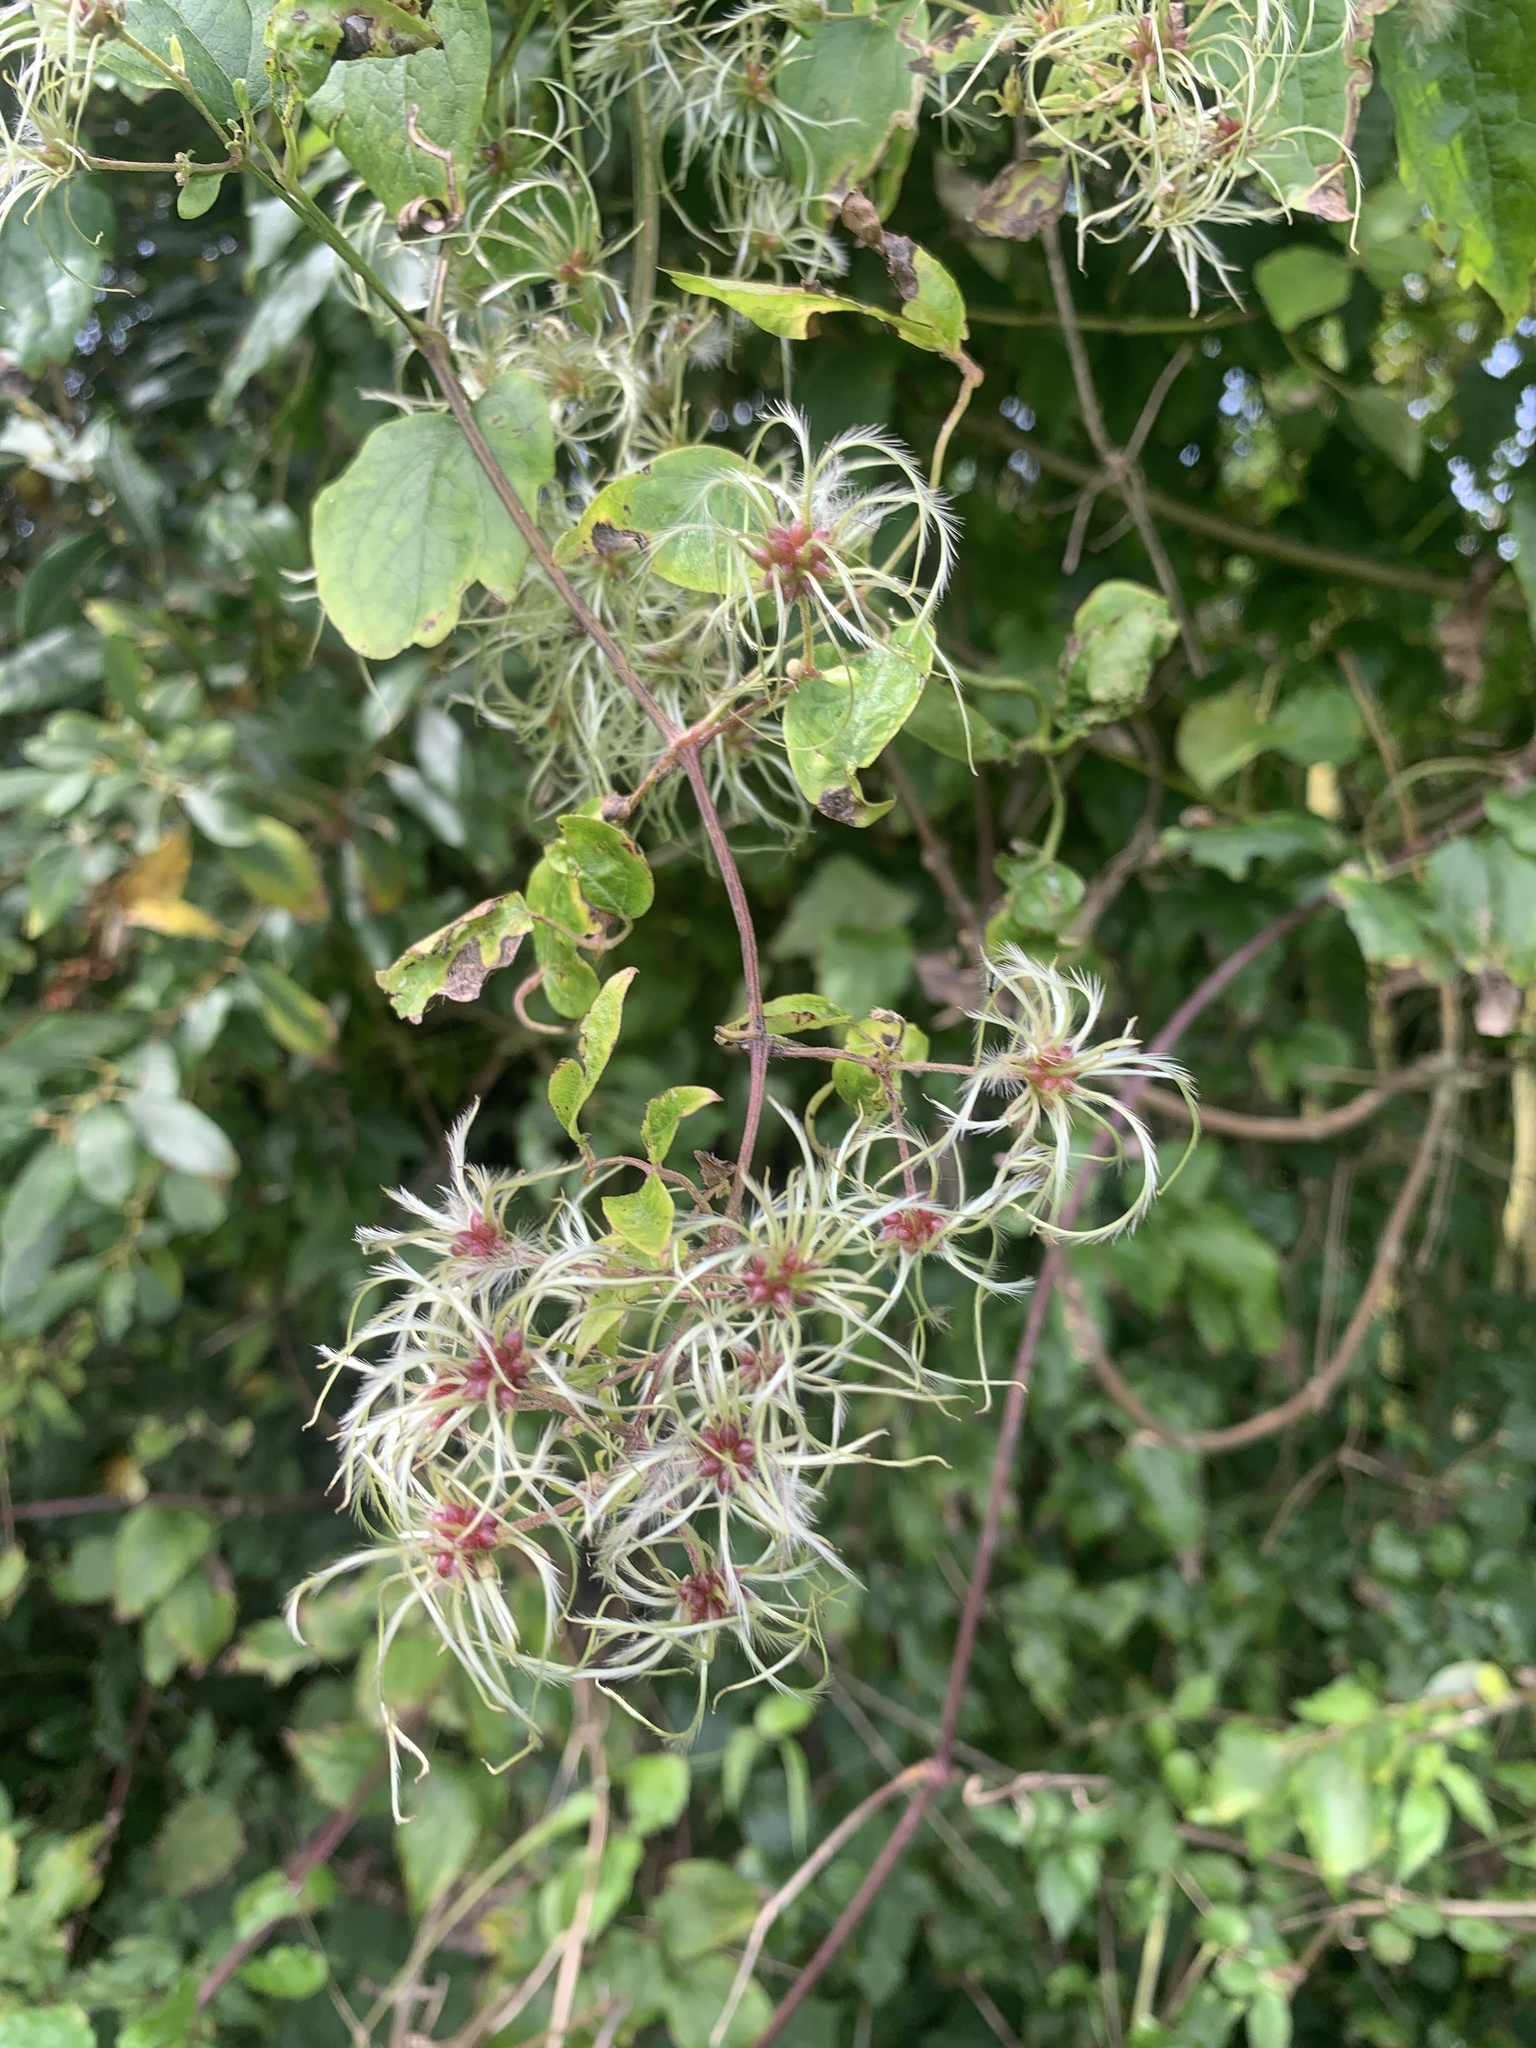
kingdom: Plantae
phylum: Tracheophyta
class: Magnoliopsida
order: Ranunculales
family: Ranunculaceae
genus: Clematis
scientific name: Clematis vitalba
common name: Evergreen clematis
